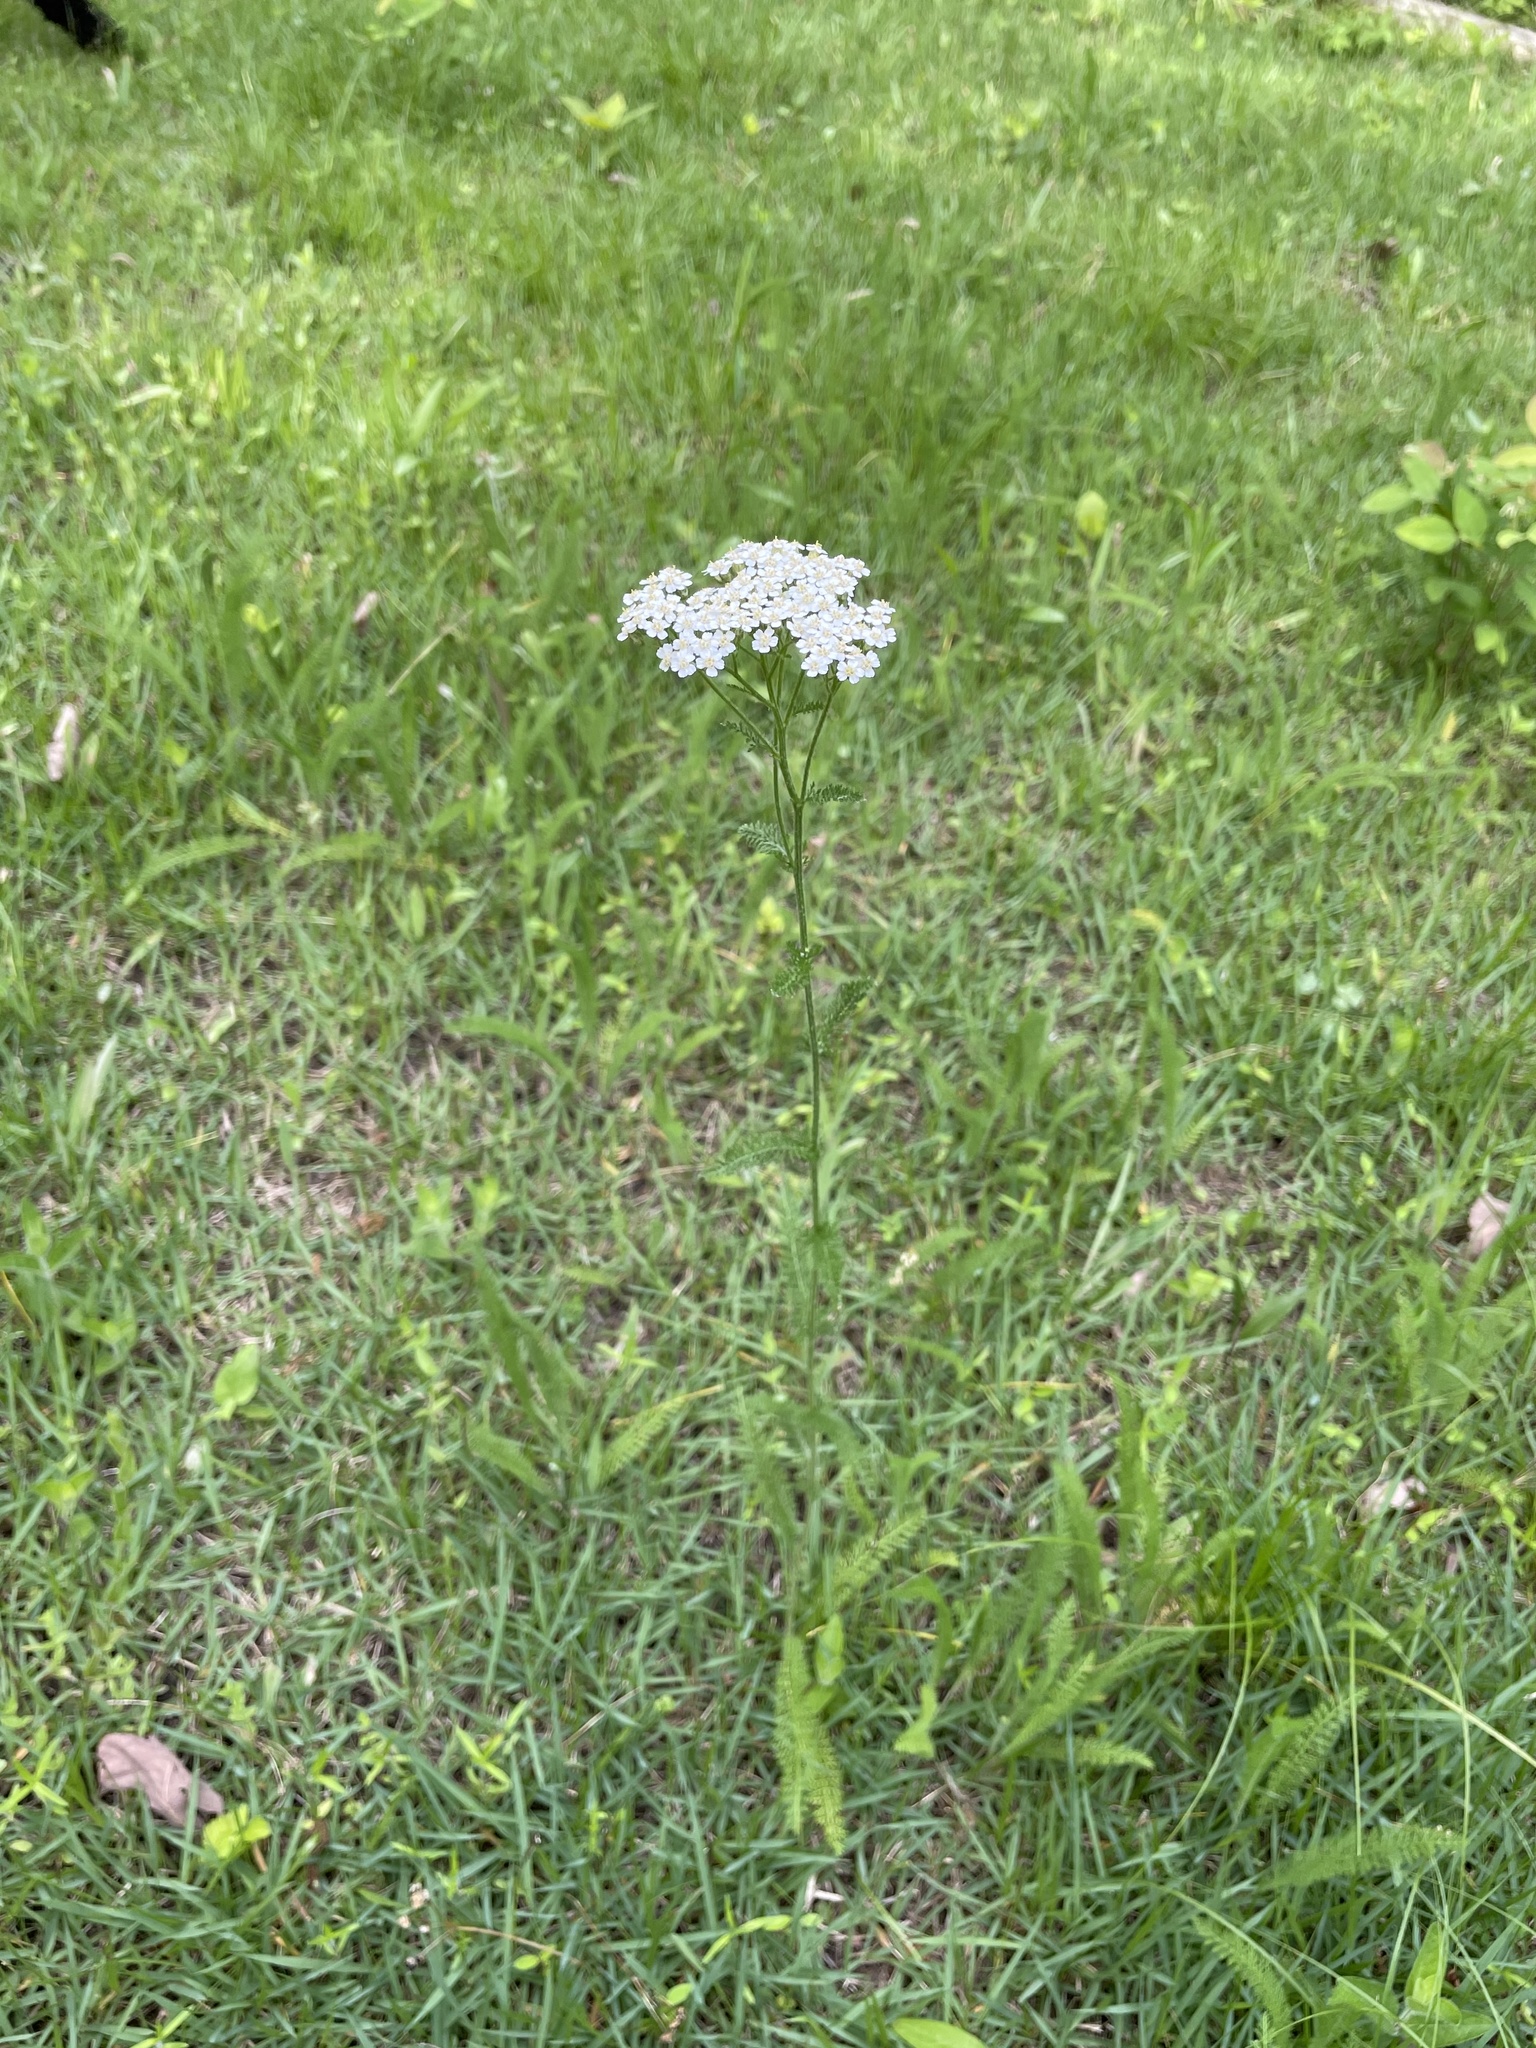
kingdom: Plantae
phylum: Tracheophyta
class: Magnoliopsida
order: Asterales
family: Asteraceae
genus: Achillea
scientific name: Achillea millefolium
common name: Yarrow
